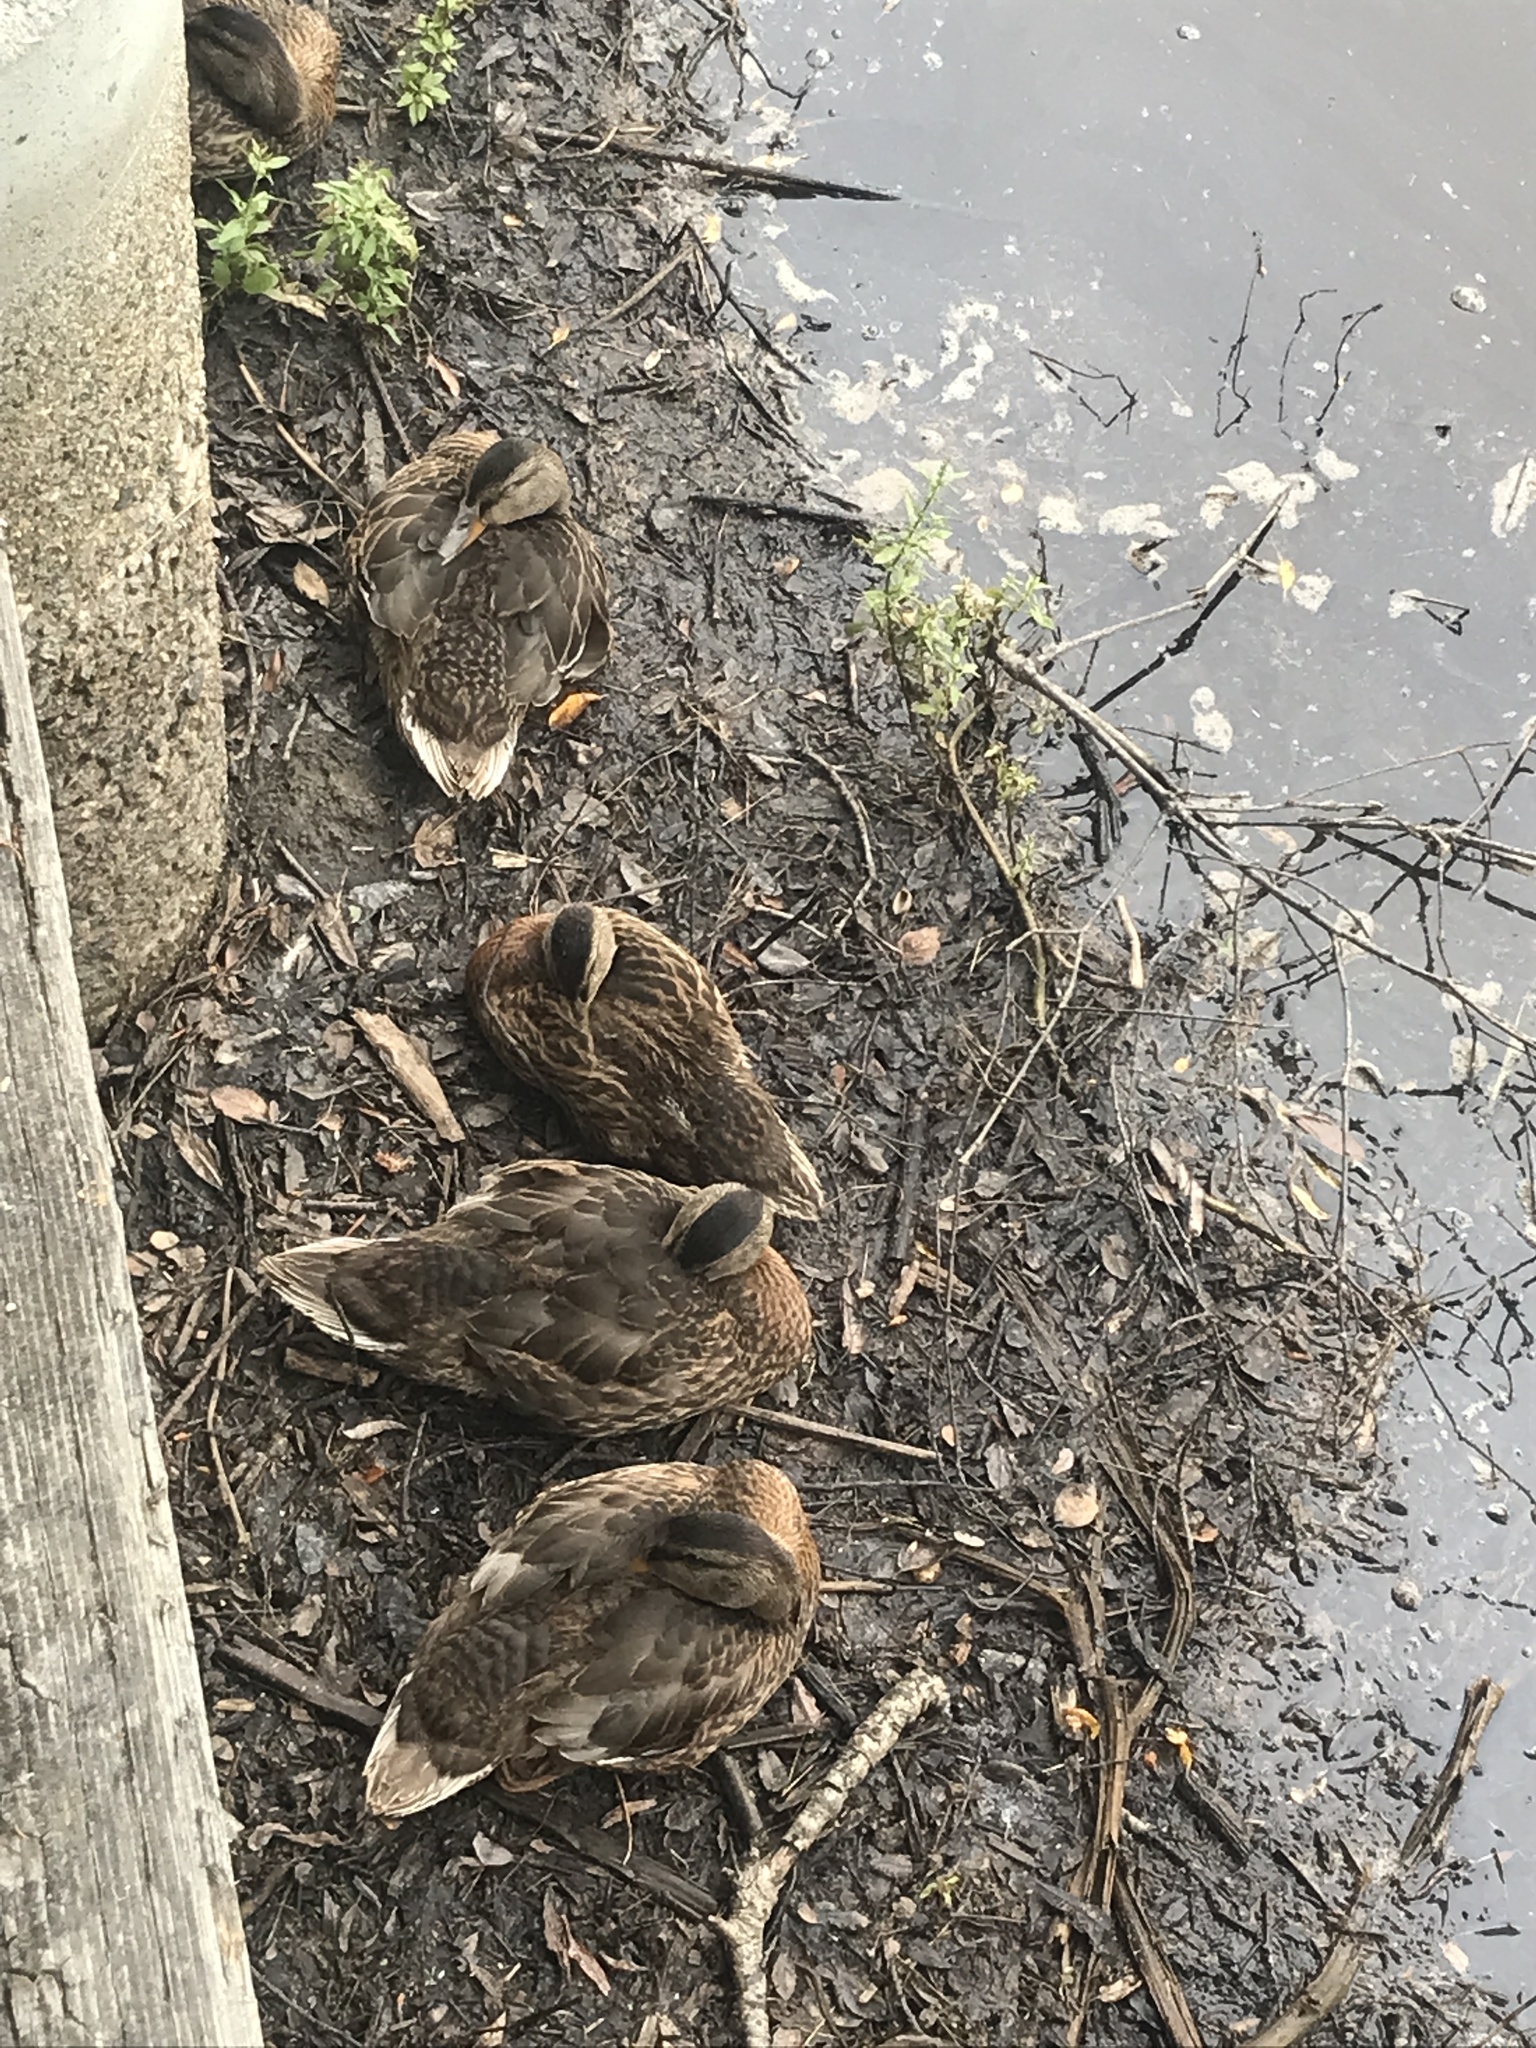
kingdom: Animalia
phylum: Chordata
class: Aves
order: Anseriformes
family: Anatidae
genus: Anas
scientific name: Anas platyrhynchos
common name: Mallard
